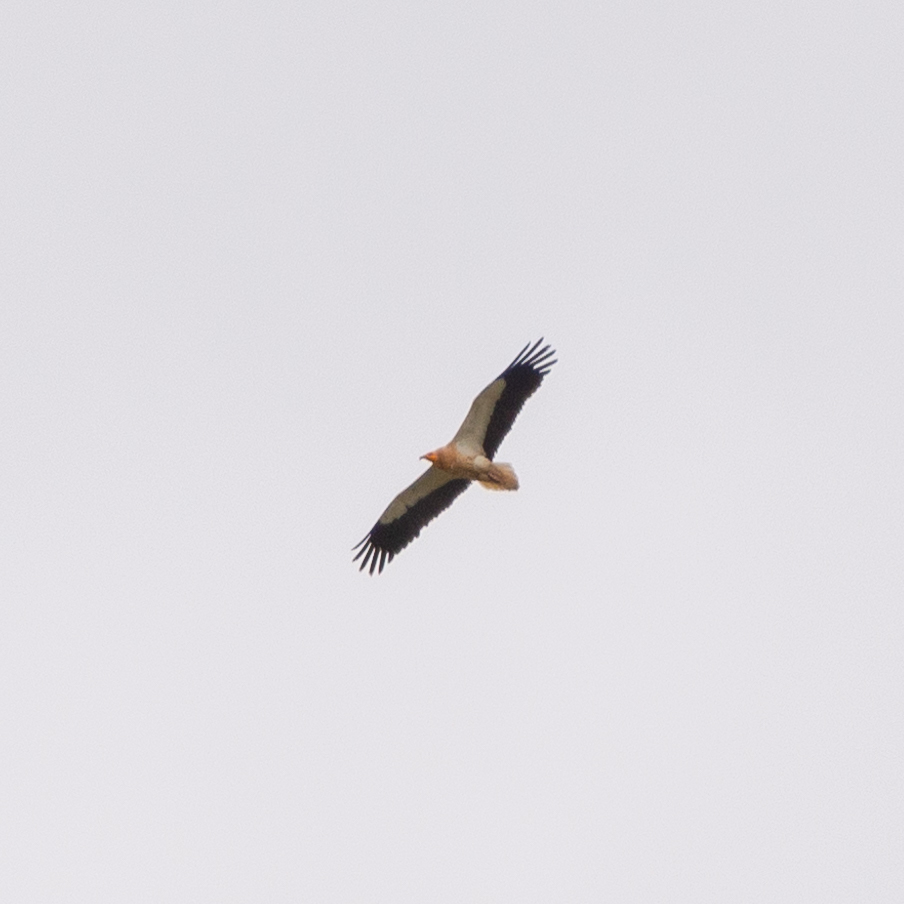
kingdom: Animalia
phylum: Chordata
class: Aves
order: Accipitriformes
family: Accipitridae
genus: Neophron
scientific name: Neophron percnopterus
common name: Egyptian vulture
